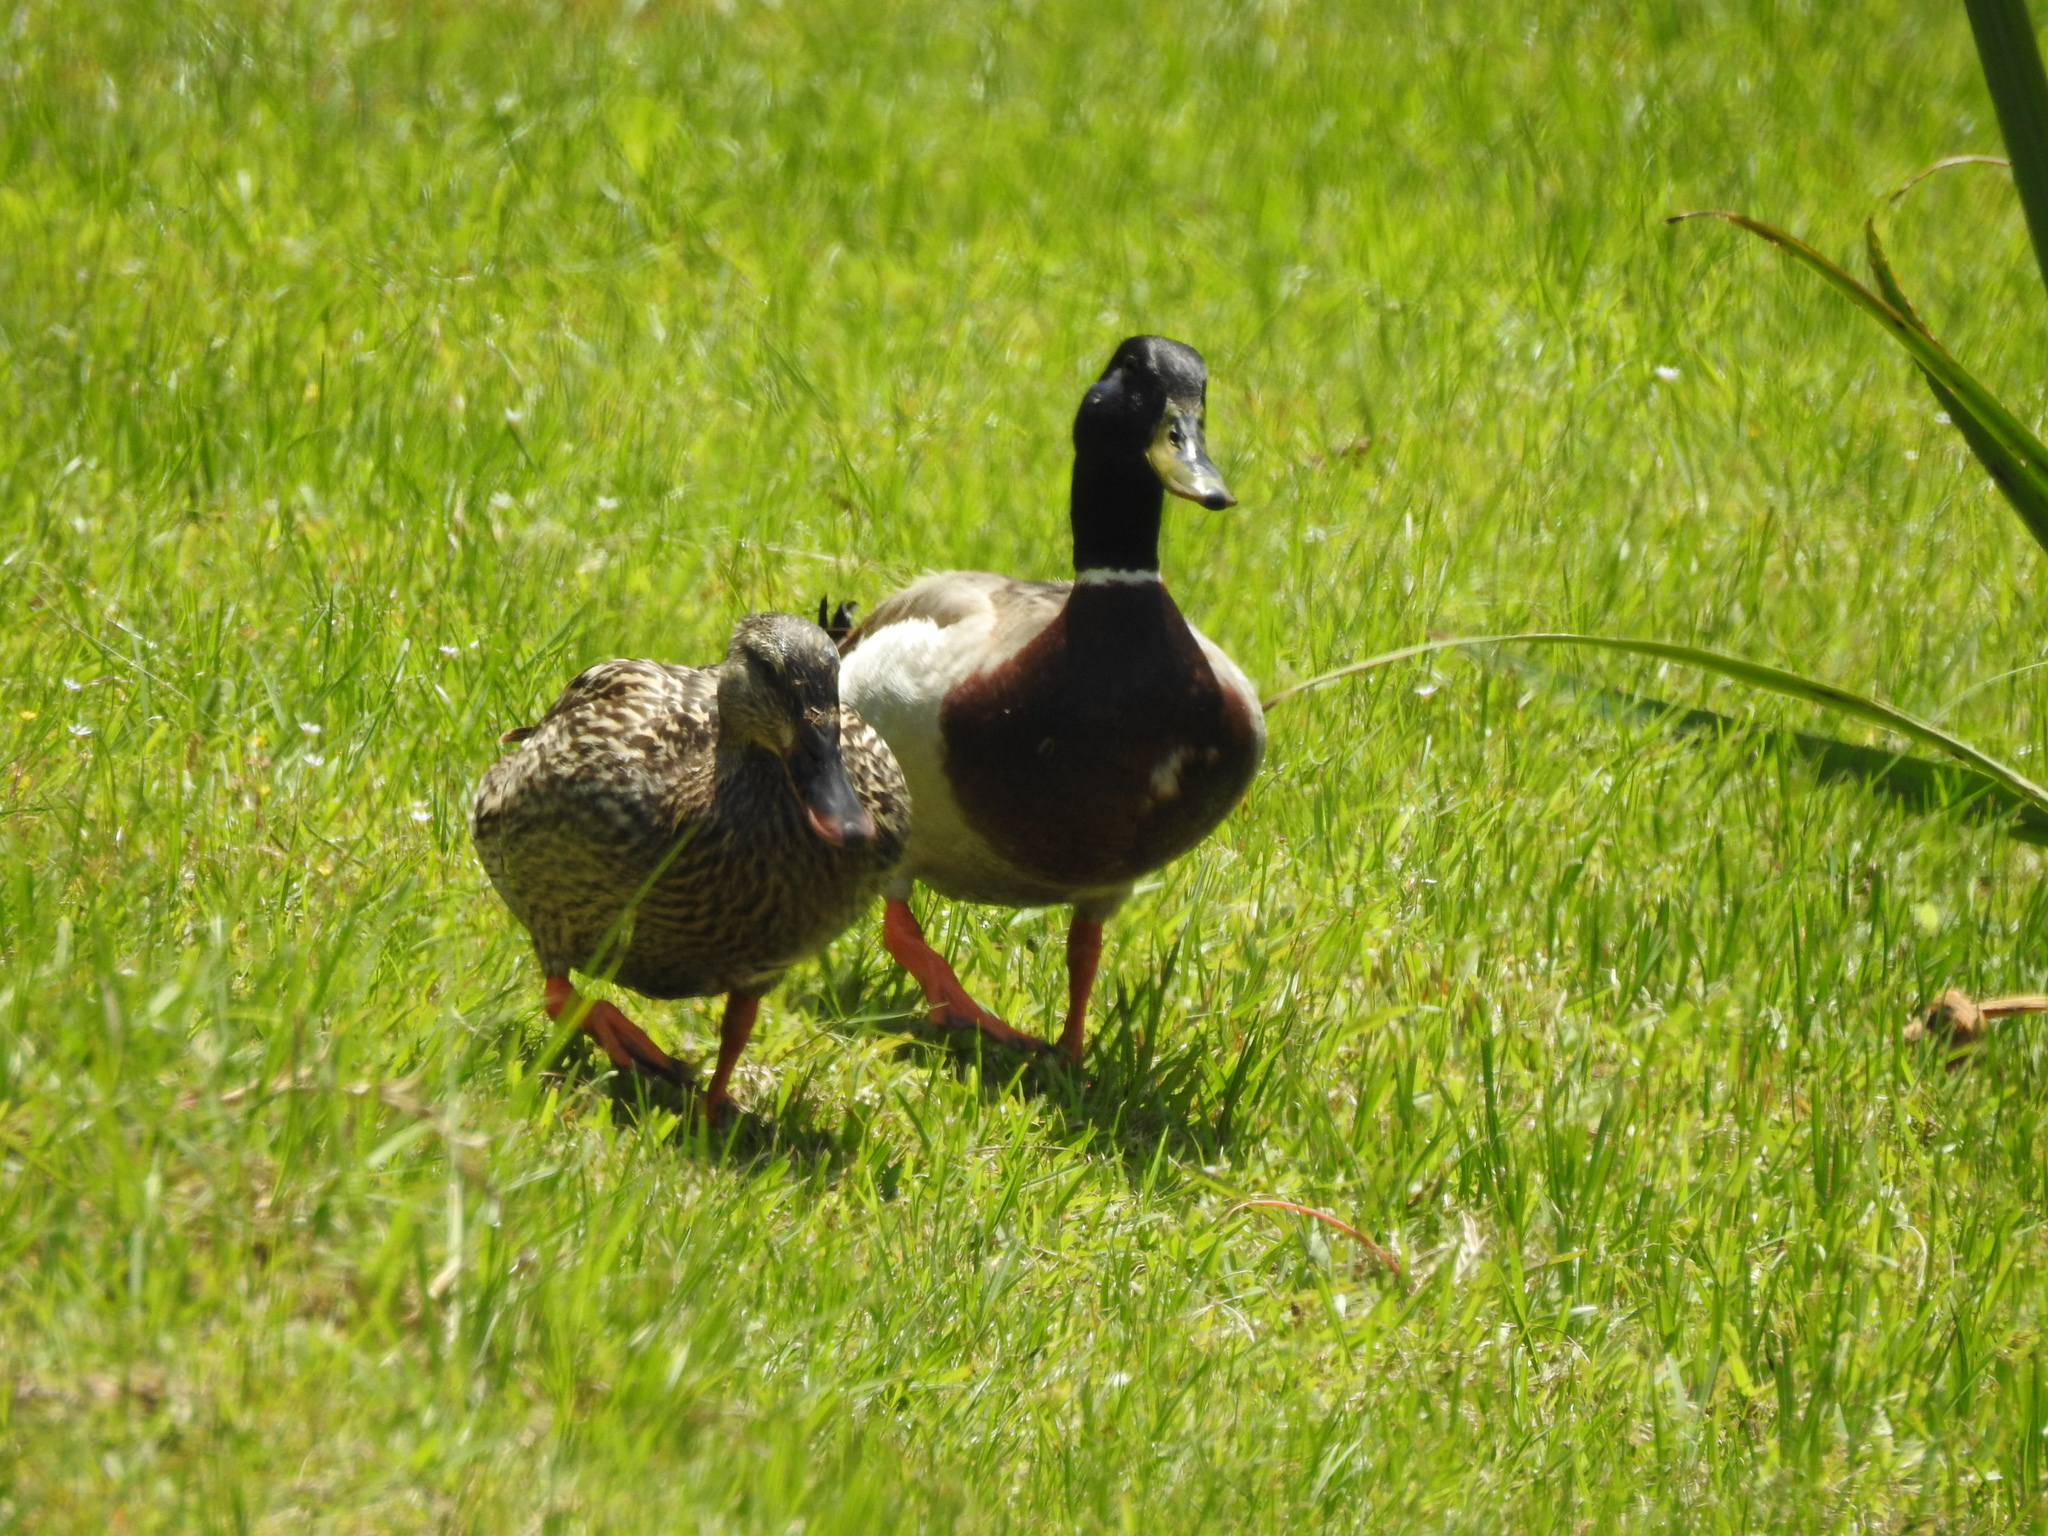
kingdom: Animalia
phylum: Chordata
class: Aves
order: Anseriformes
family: Anatidae
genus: Anas
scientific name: Anas platyrhynchos
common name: Mallard
